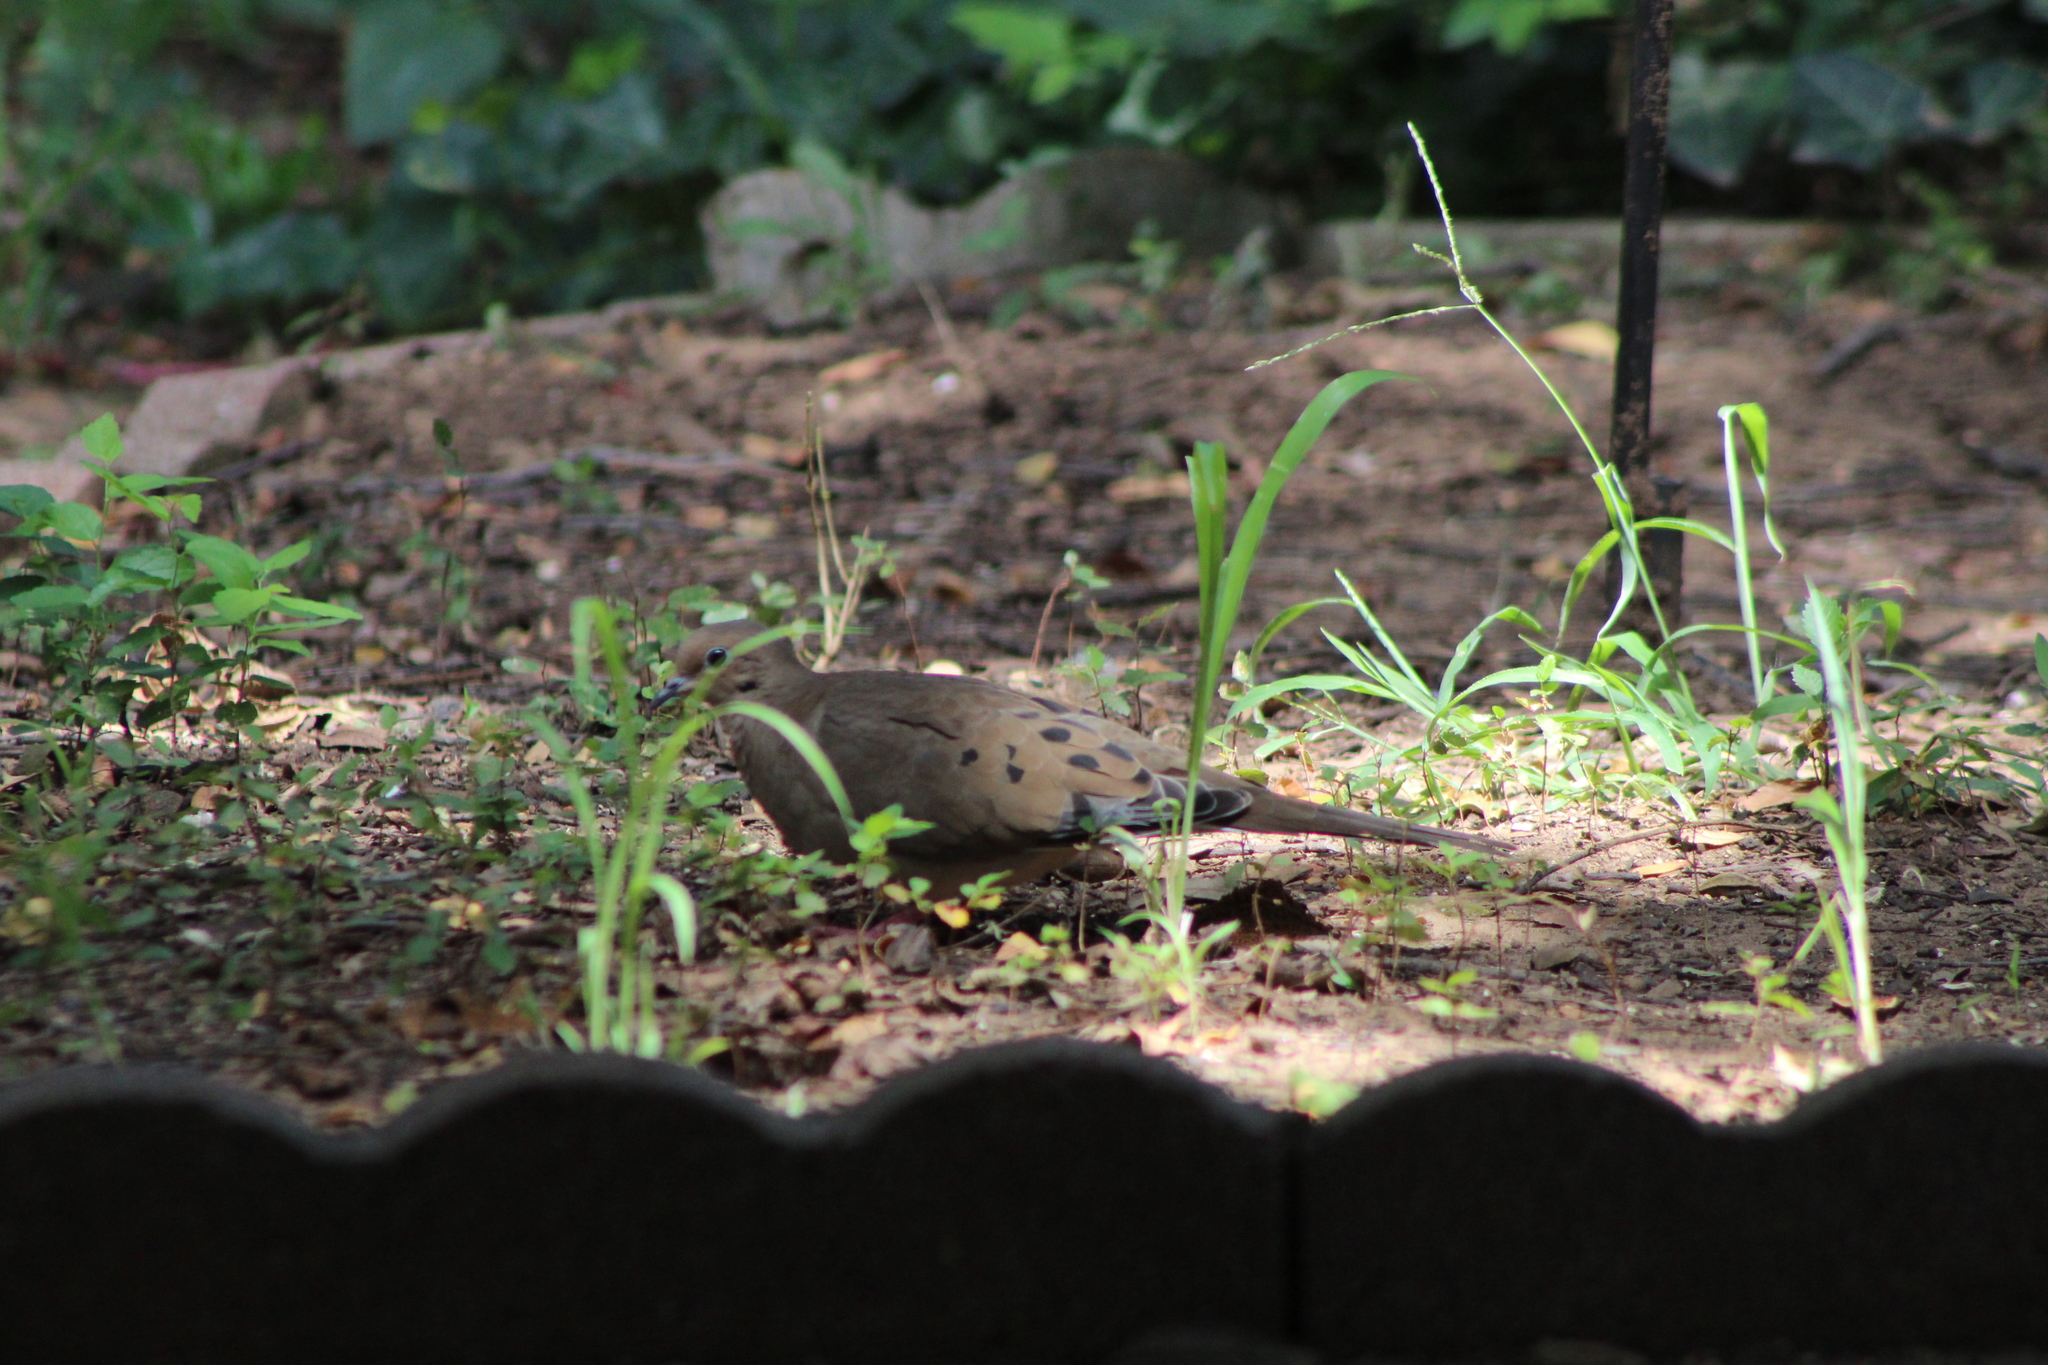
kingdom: Animalia
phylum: Chordata
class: Aves
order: Columbiformes
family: Columbidae
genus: Zenaida
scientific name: Zenaida macroura
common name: Mourning dove
